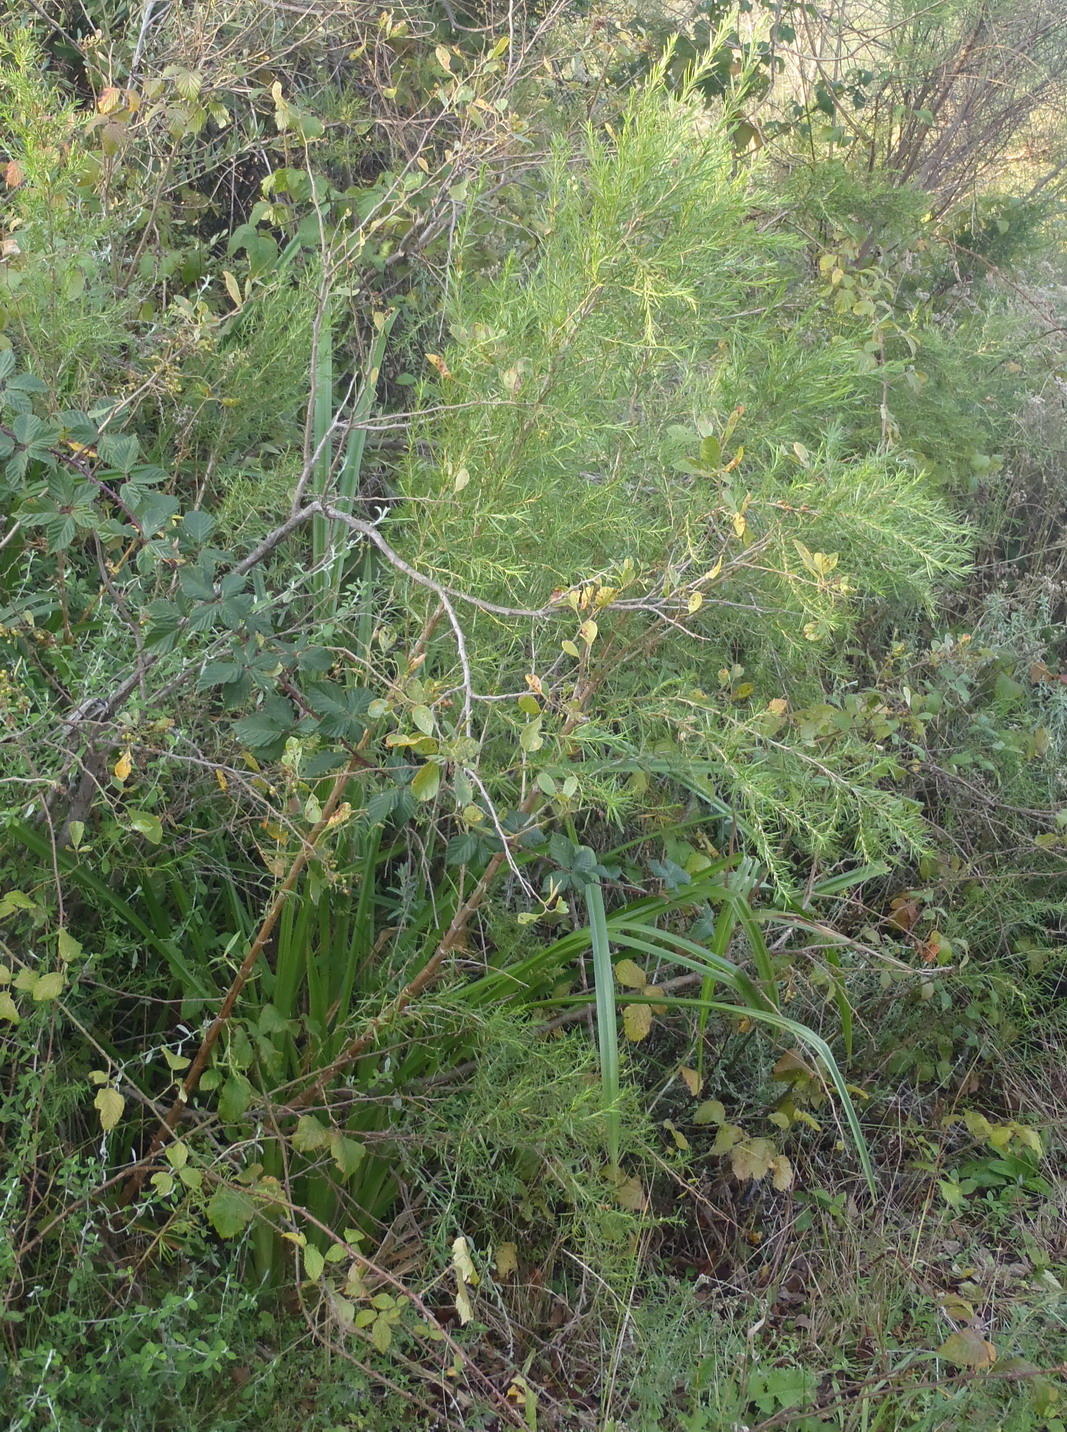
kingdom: Plantae
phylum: Tracheophyta
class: Magnoliopsida
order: Rosales
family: Rosaceae
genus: Cliffortia
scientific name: Cliffortia strobilifera
